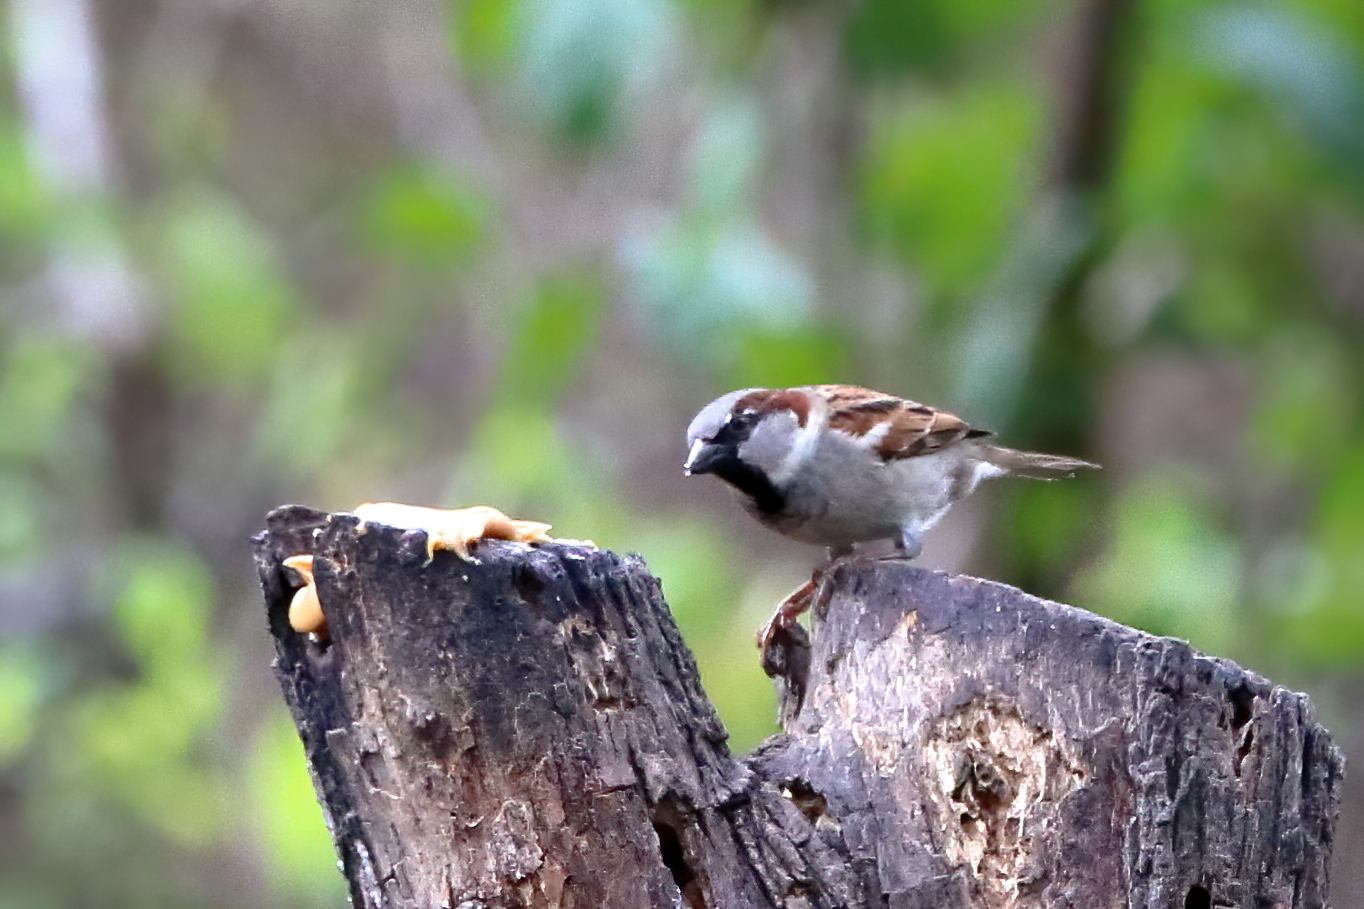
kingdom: Animalia
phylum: Chordata
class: Aves
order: Passeriformes
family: Passeridae
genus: Passer
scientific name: Passer domesticus
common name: House sparrow
